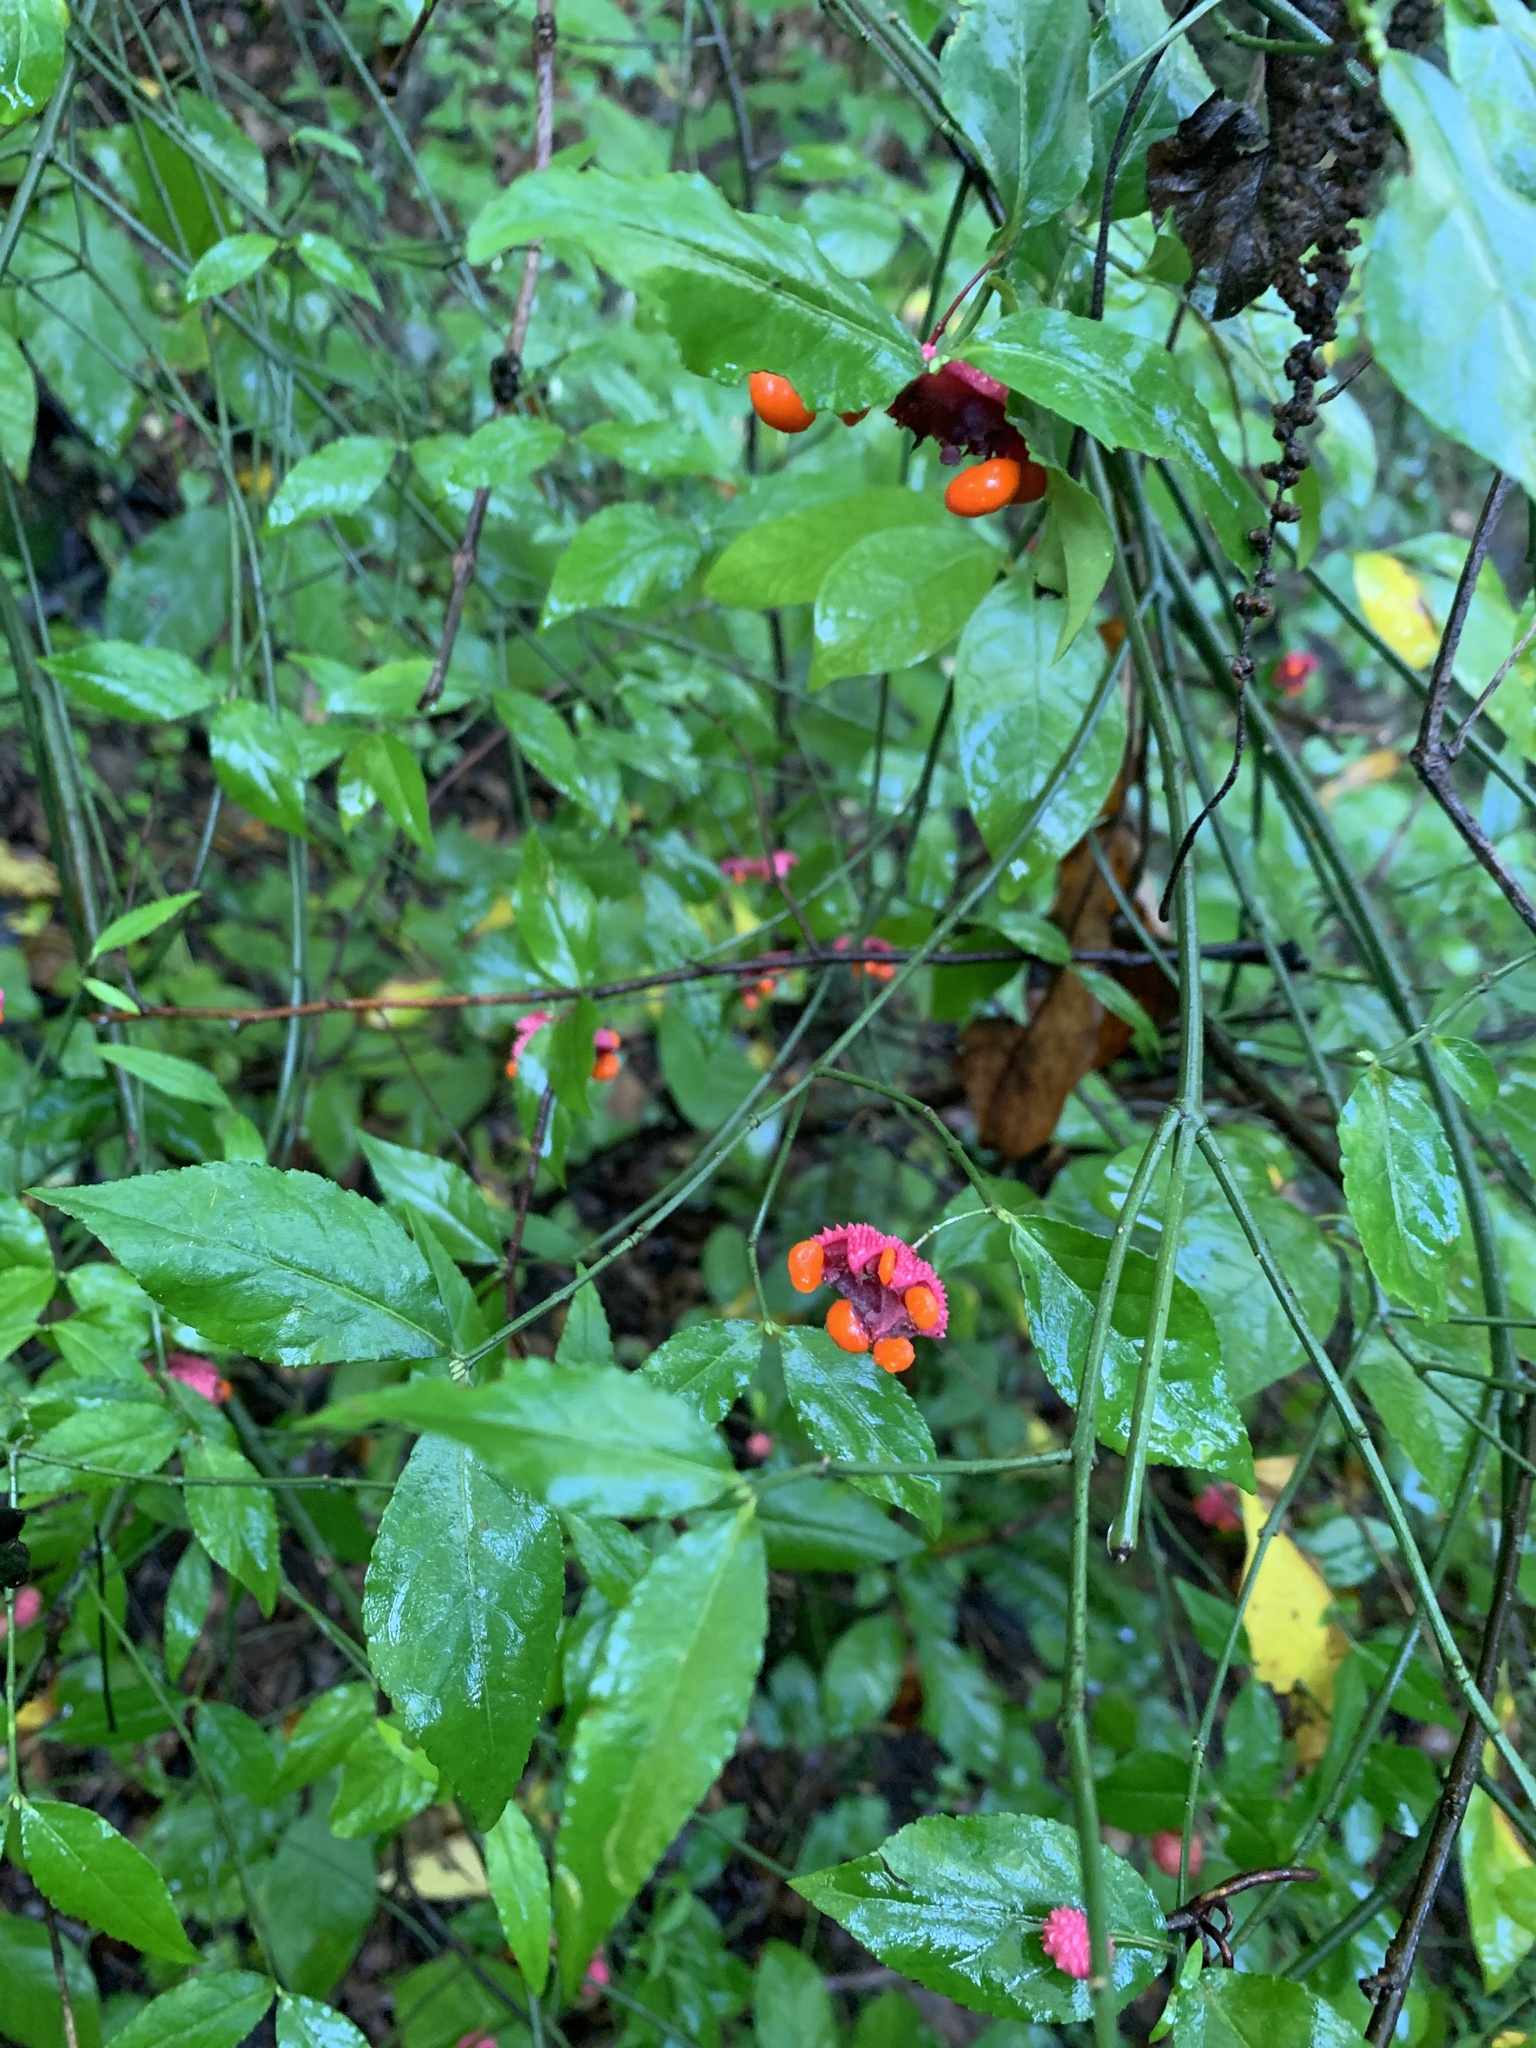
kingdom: Plantae
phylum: Tracheophyta
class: Magnoliopsida
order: Celastrales
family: Celastraceae
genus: Euonymus
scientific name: Euonymus americanus
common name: Bursting-heart
